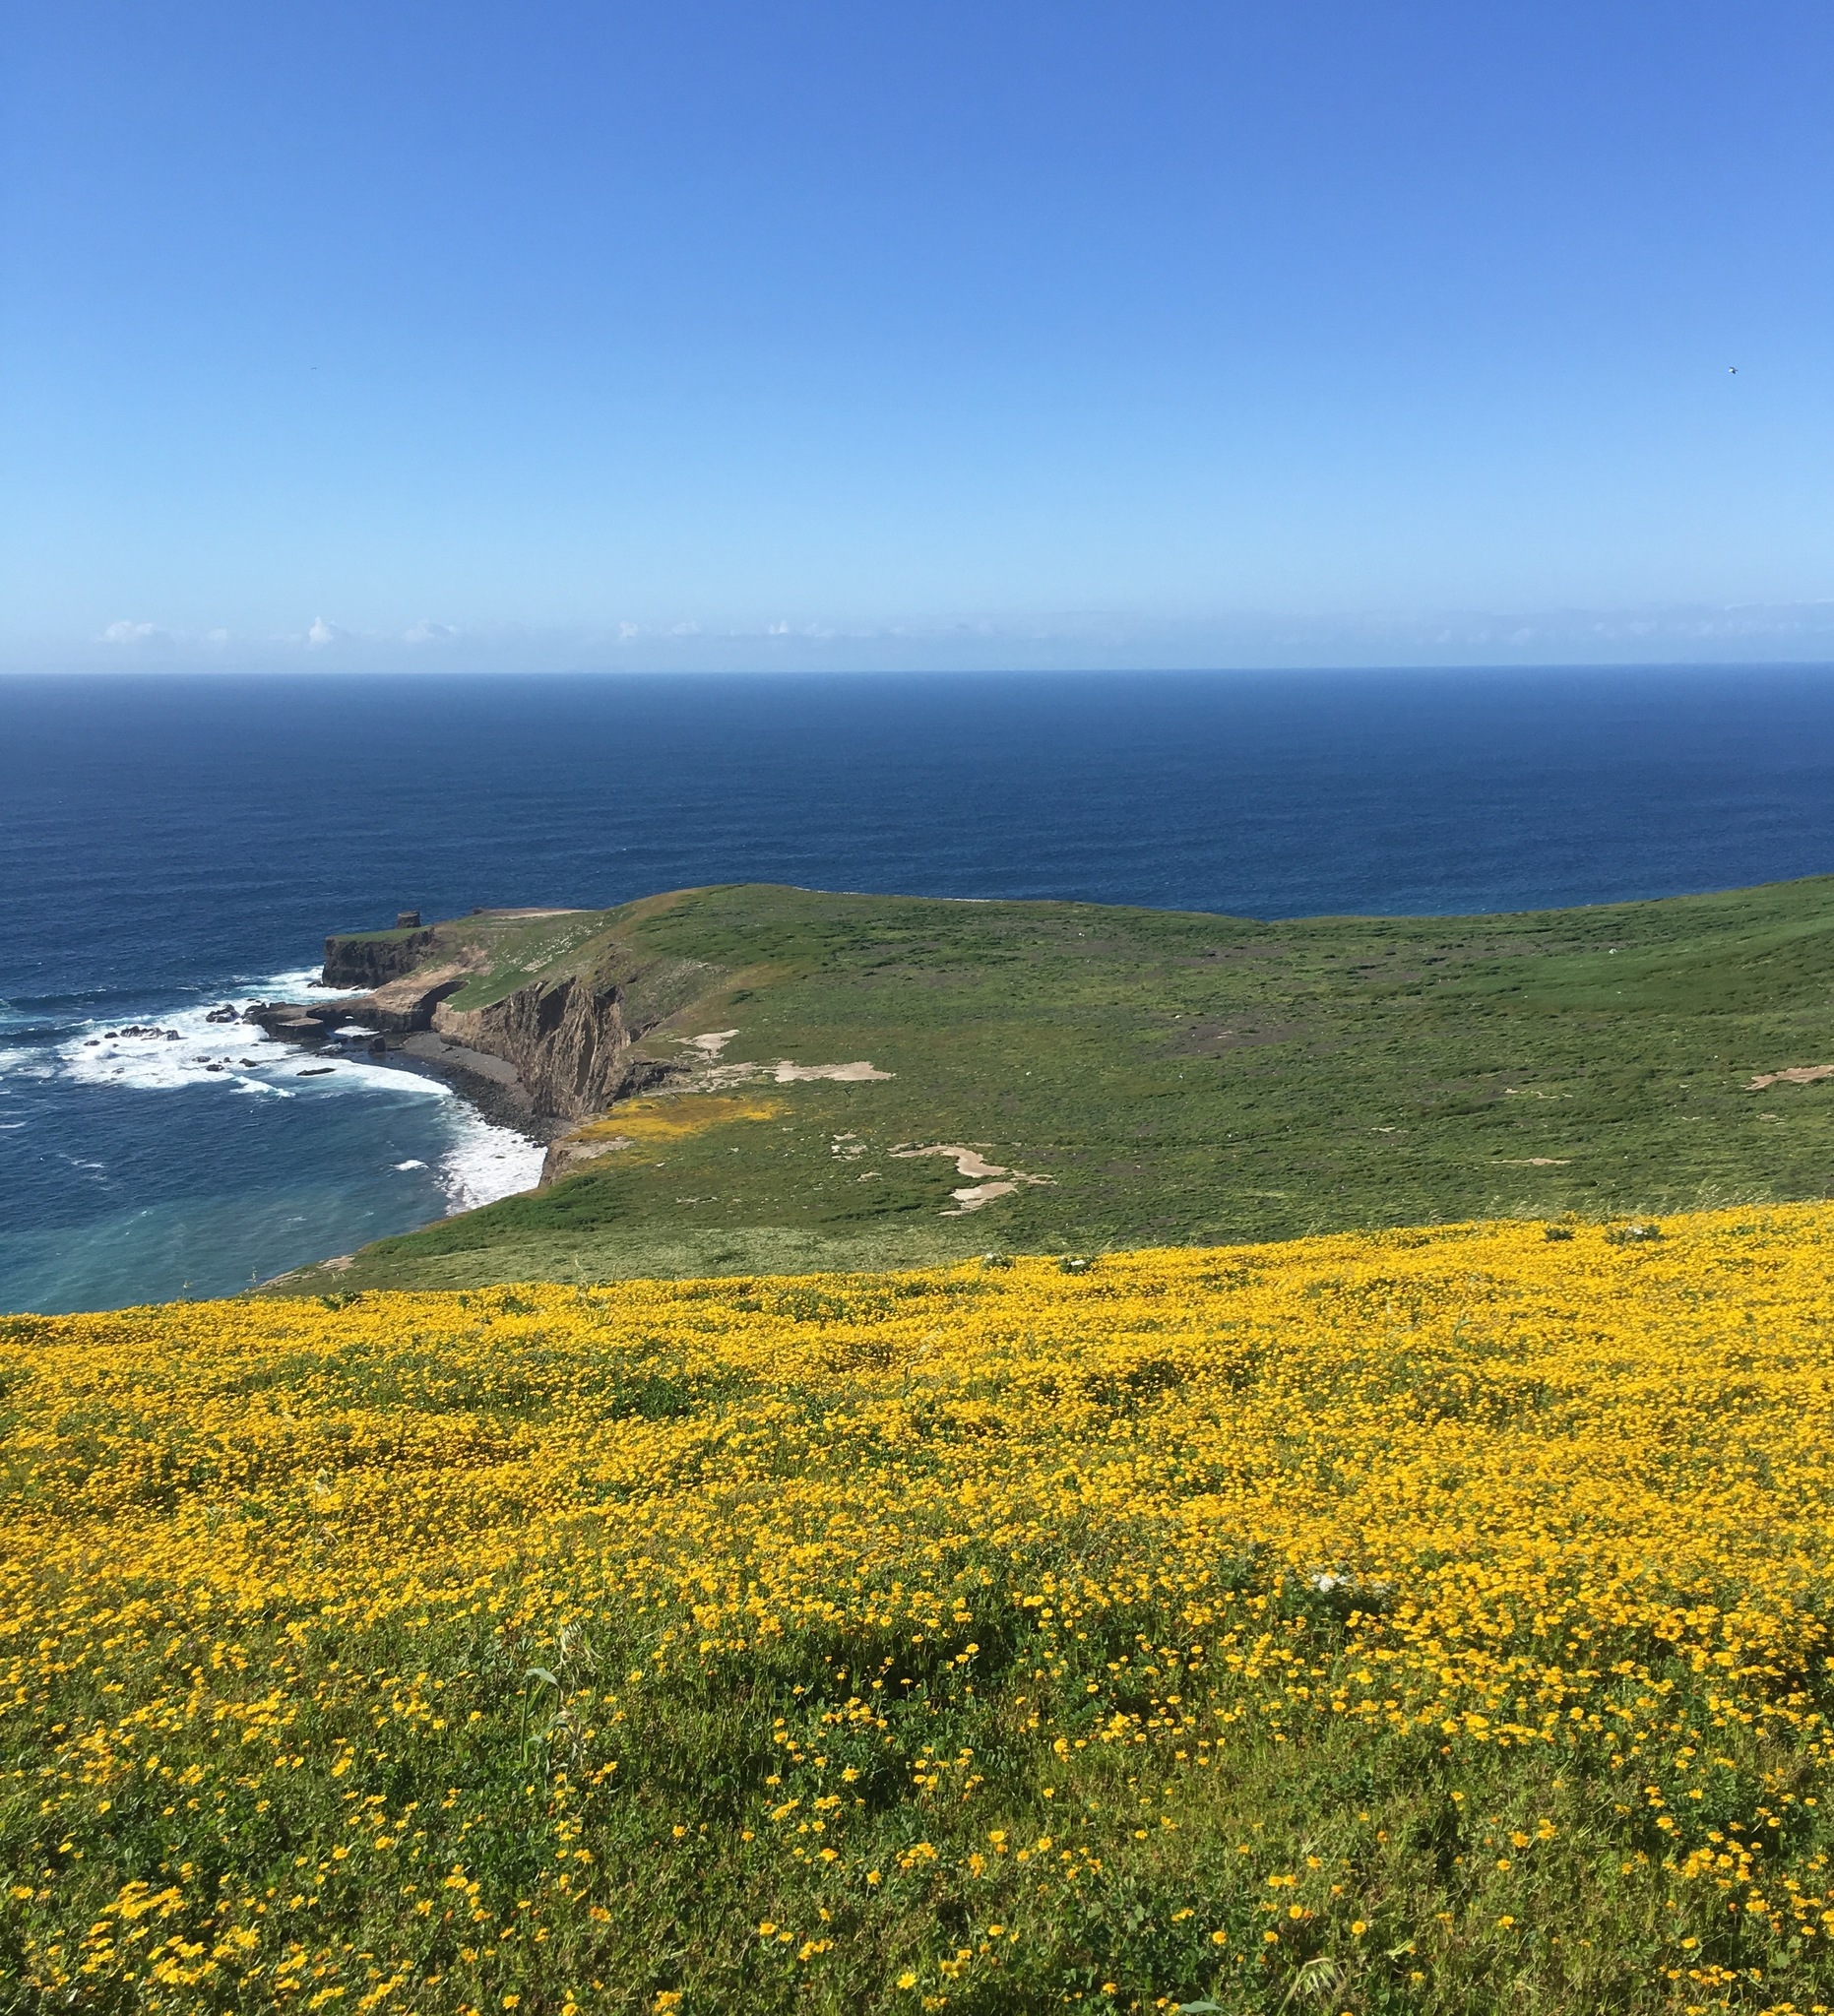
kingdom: Plantae
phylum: Tracheophyta
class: Magnoliopsida
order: Asterales
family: Asteraceae
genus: Lasthenia
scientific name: Lasthenia gracilis
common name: Common goldfields
